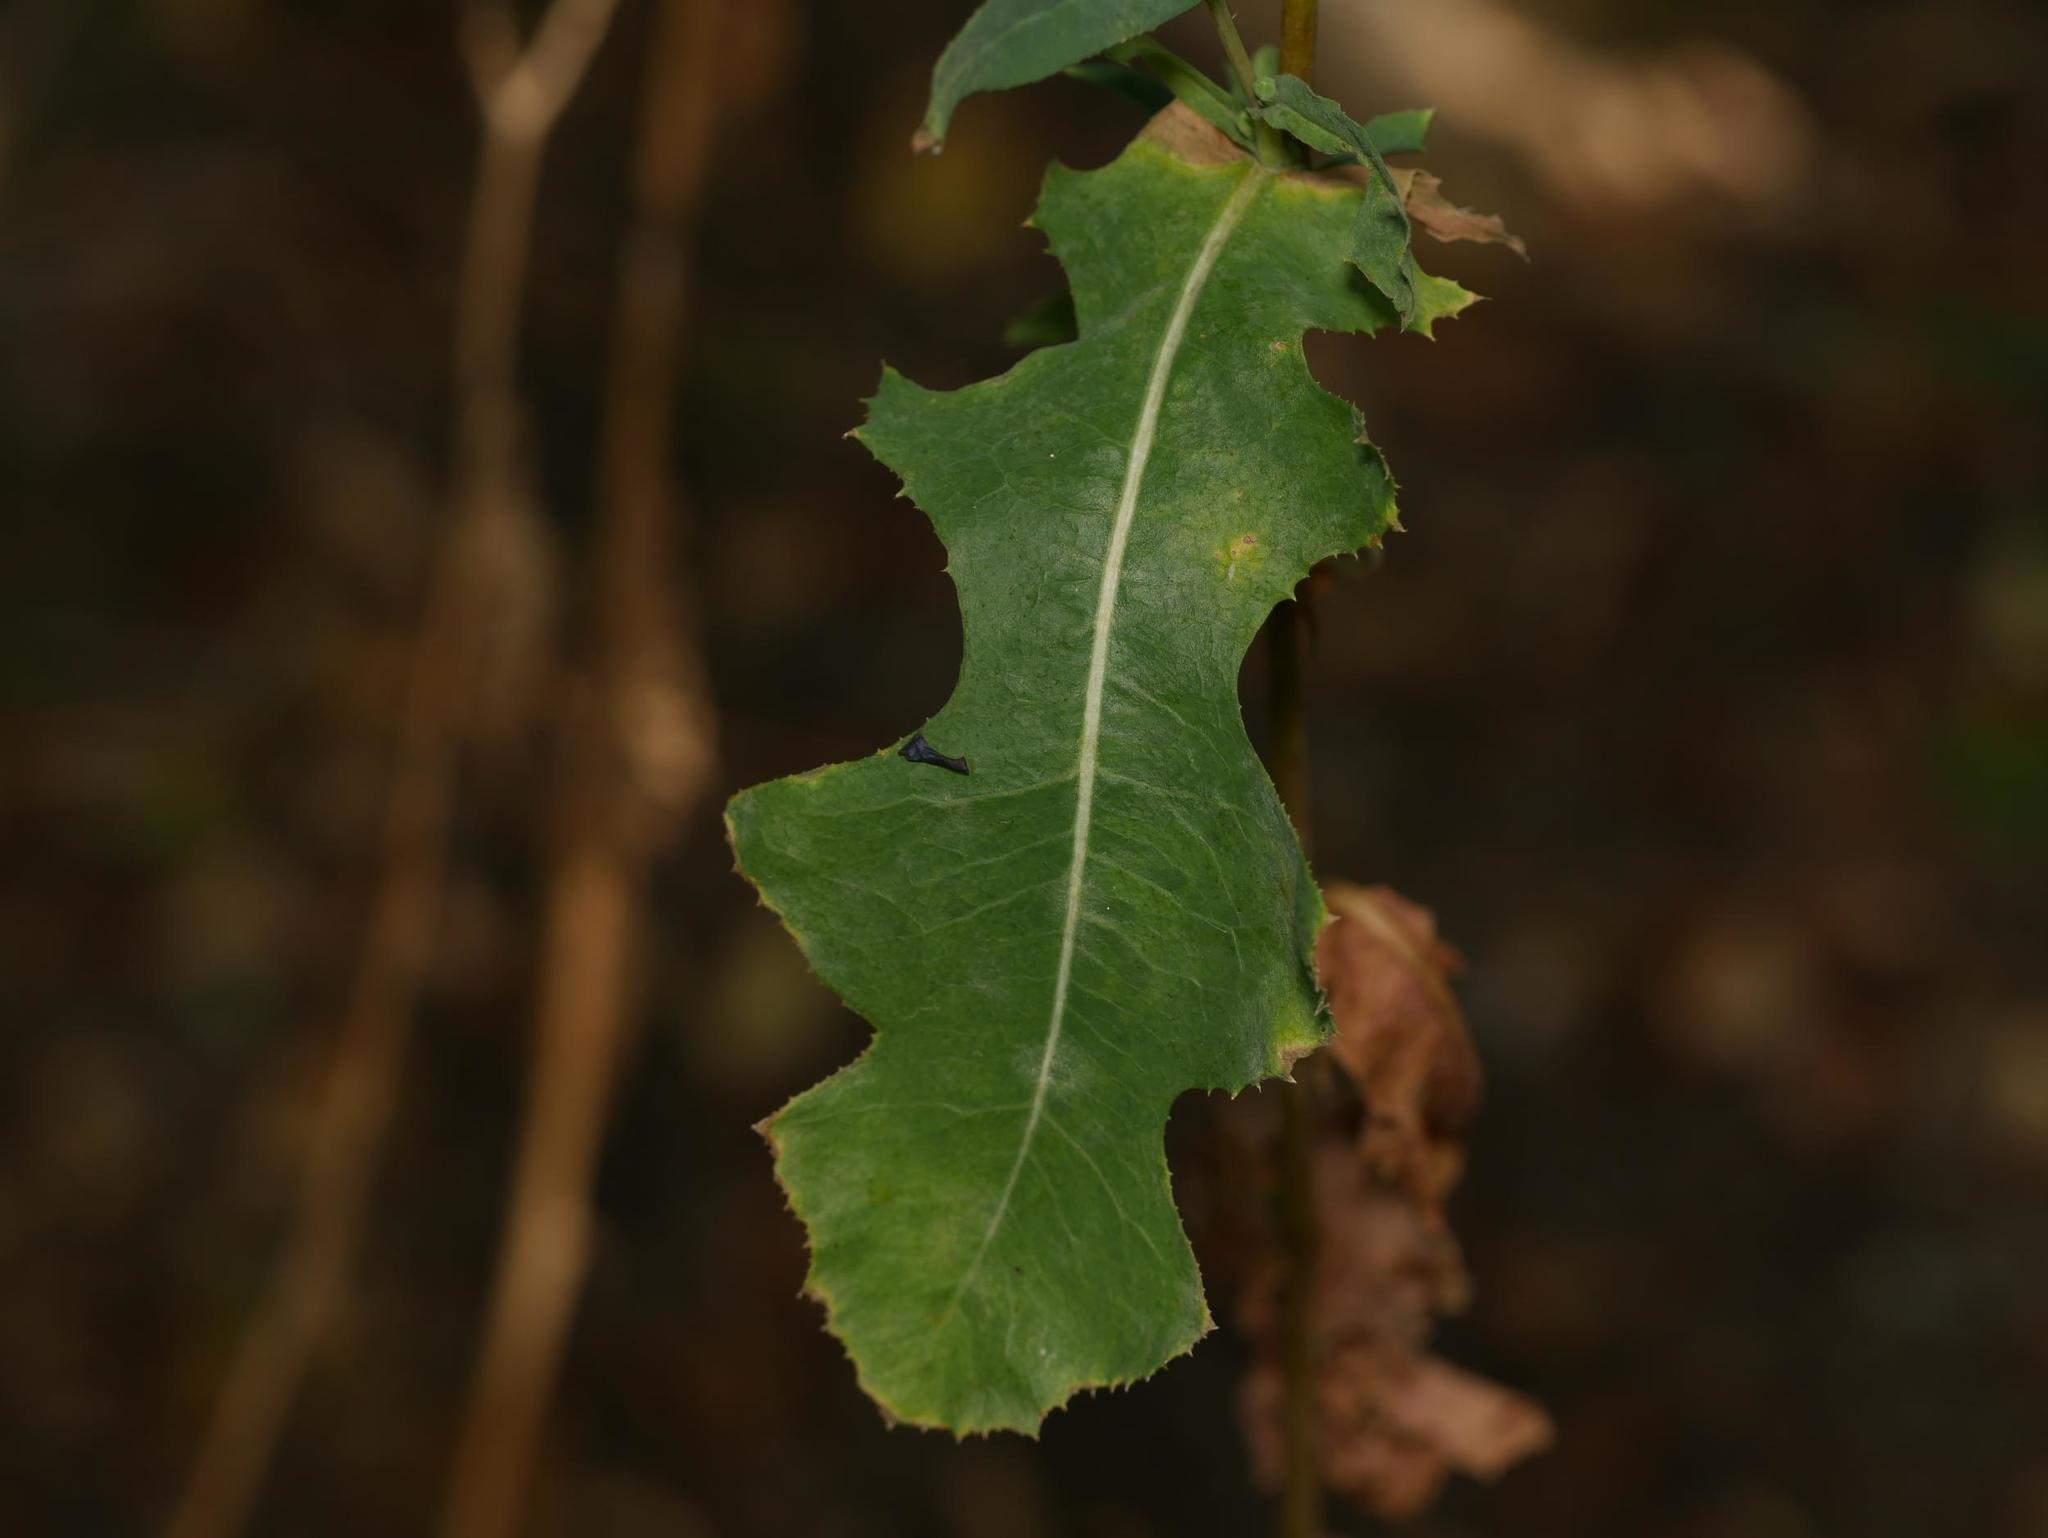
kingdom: Plantae
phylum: Tracheophyta
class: Magnoliopsida
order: Asterales
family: Asteraceae
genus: Lactuca
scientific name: Lactuca serriola
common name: Prickly lettuce
